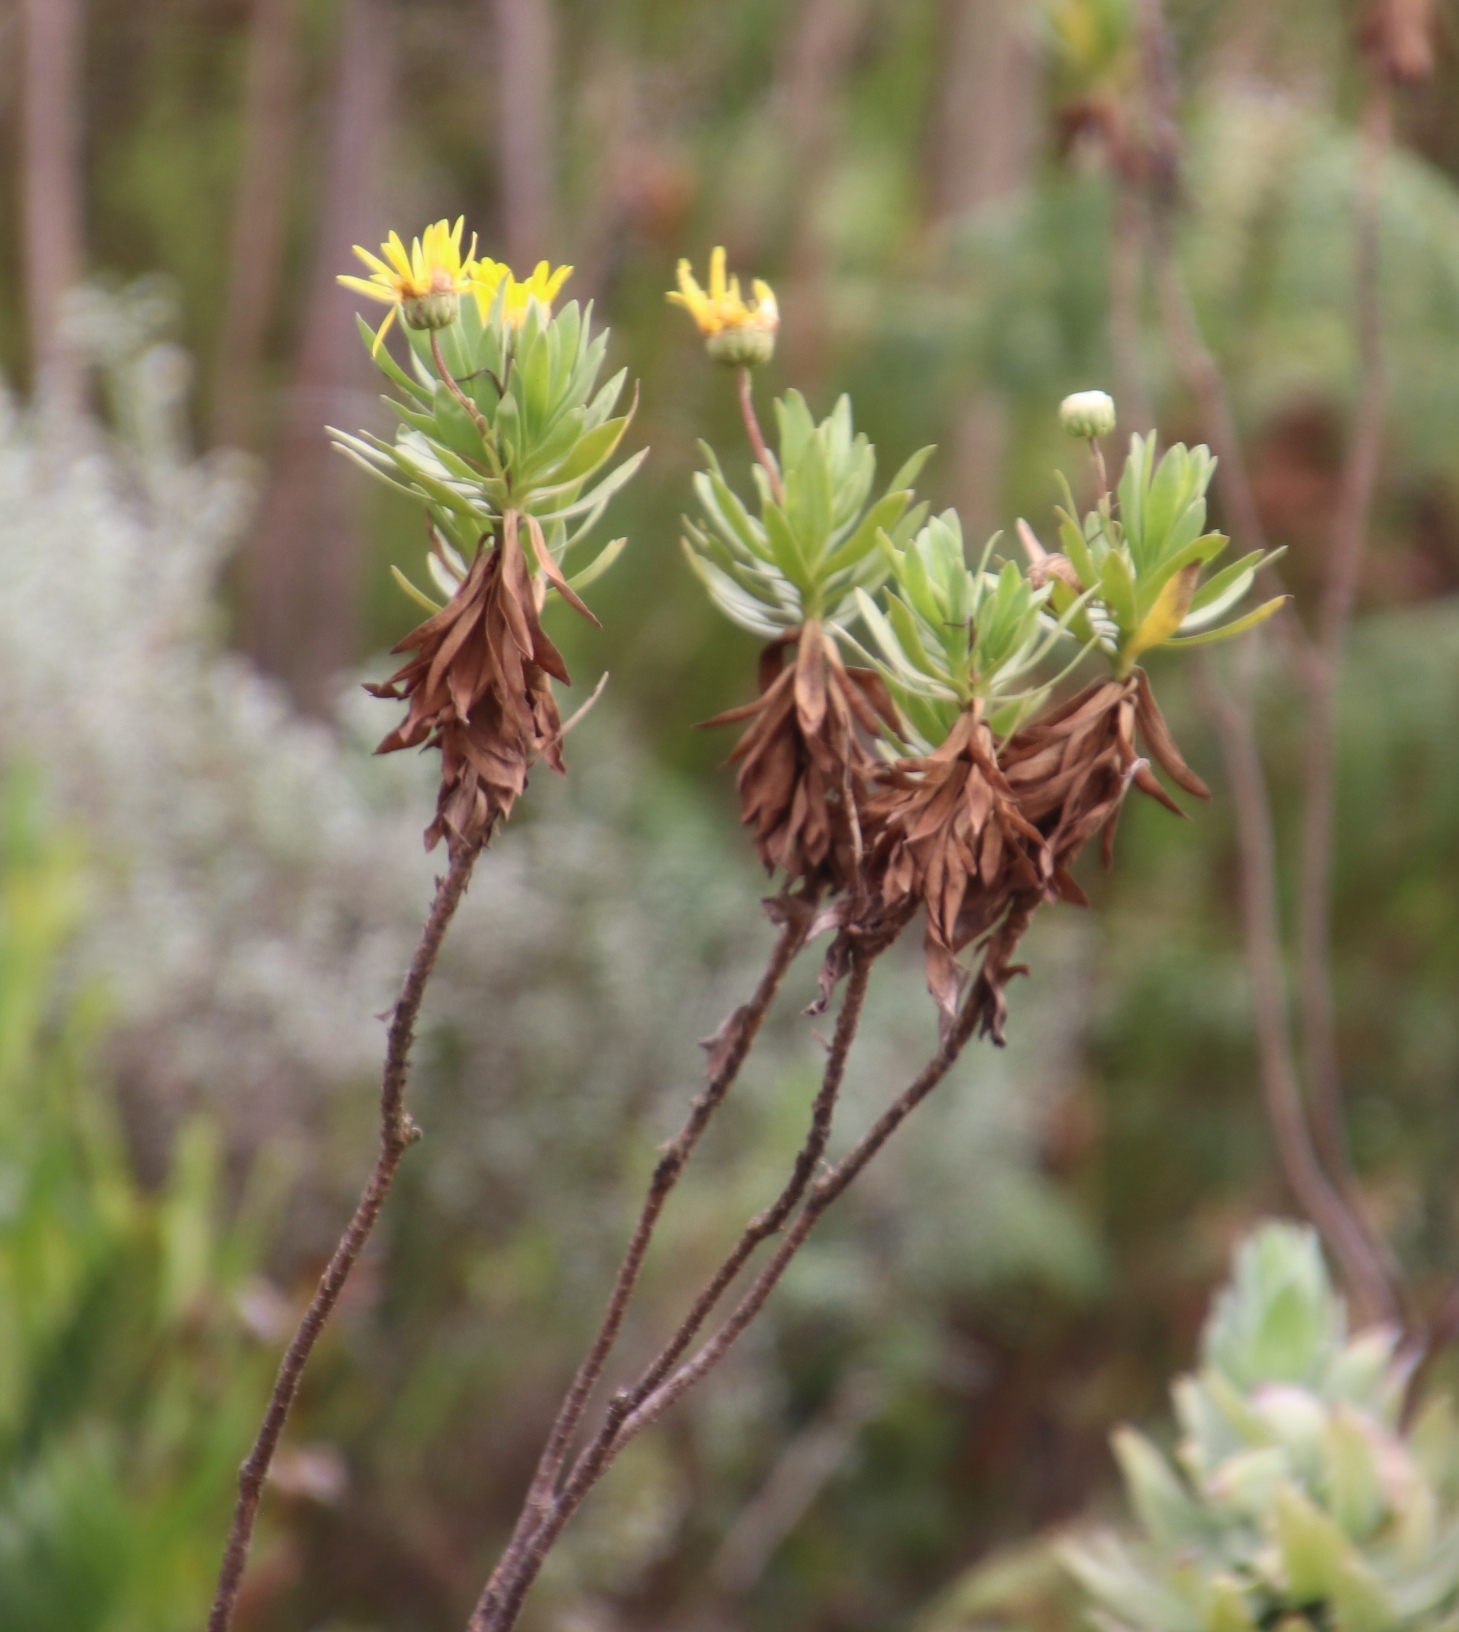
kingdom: Plantae
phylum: Tracheophyta
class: Magnoliopsida
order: Asterales
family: Asteraceae
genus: Ursinia
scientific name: Ursinia eckloniana
